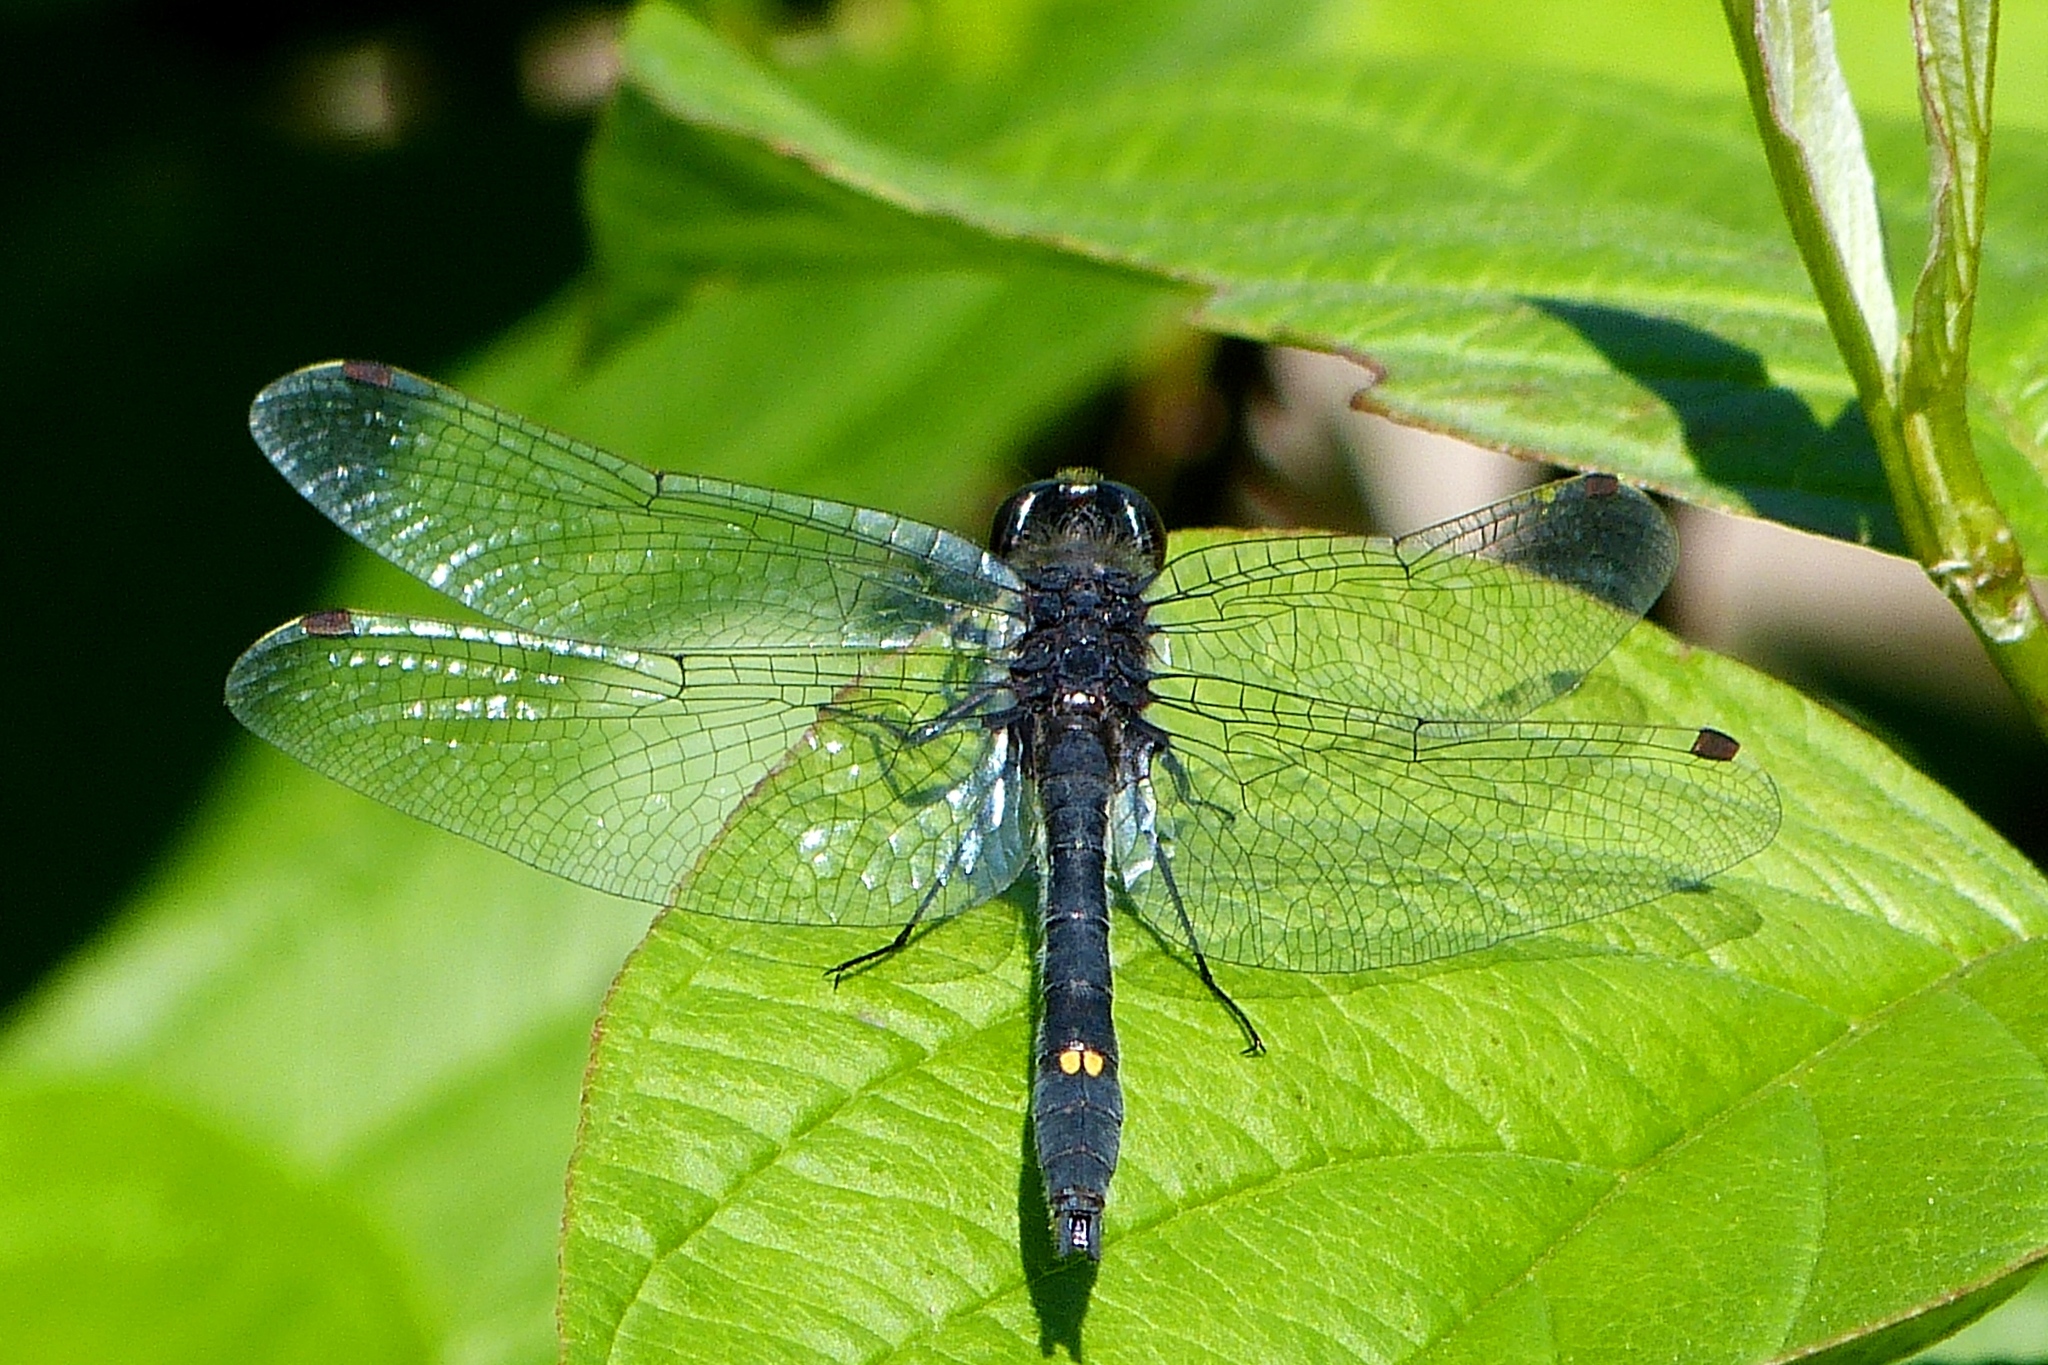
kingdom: Animalia
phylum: Arthropoda
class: Insecta
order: Odonata
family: Libellulidae
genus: Leucorrhinia
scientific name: Leucorrhinia intacta
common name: Dot-tailed whiteface
